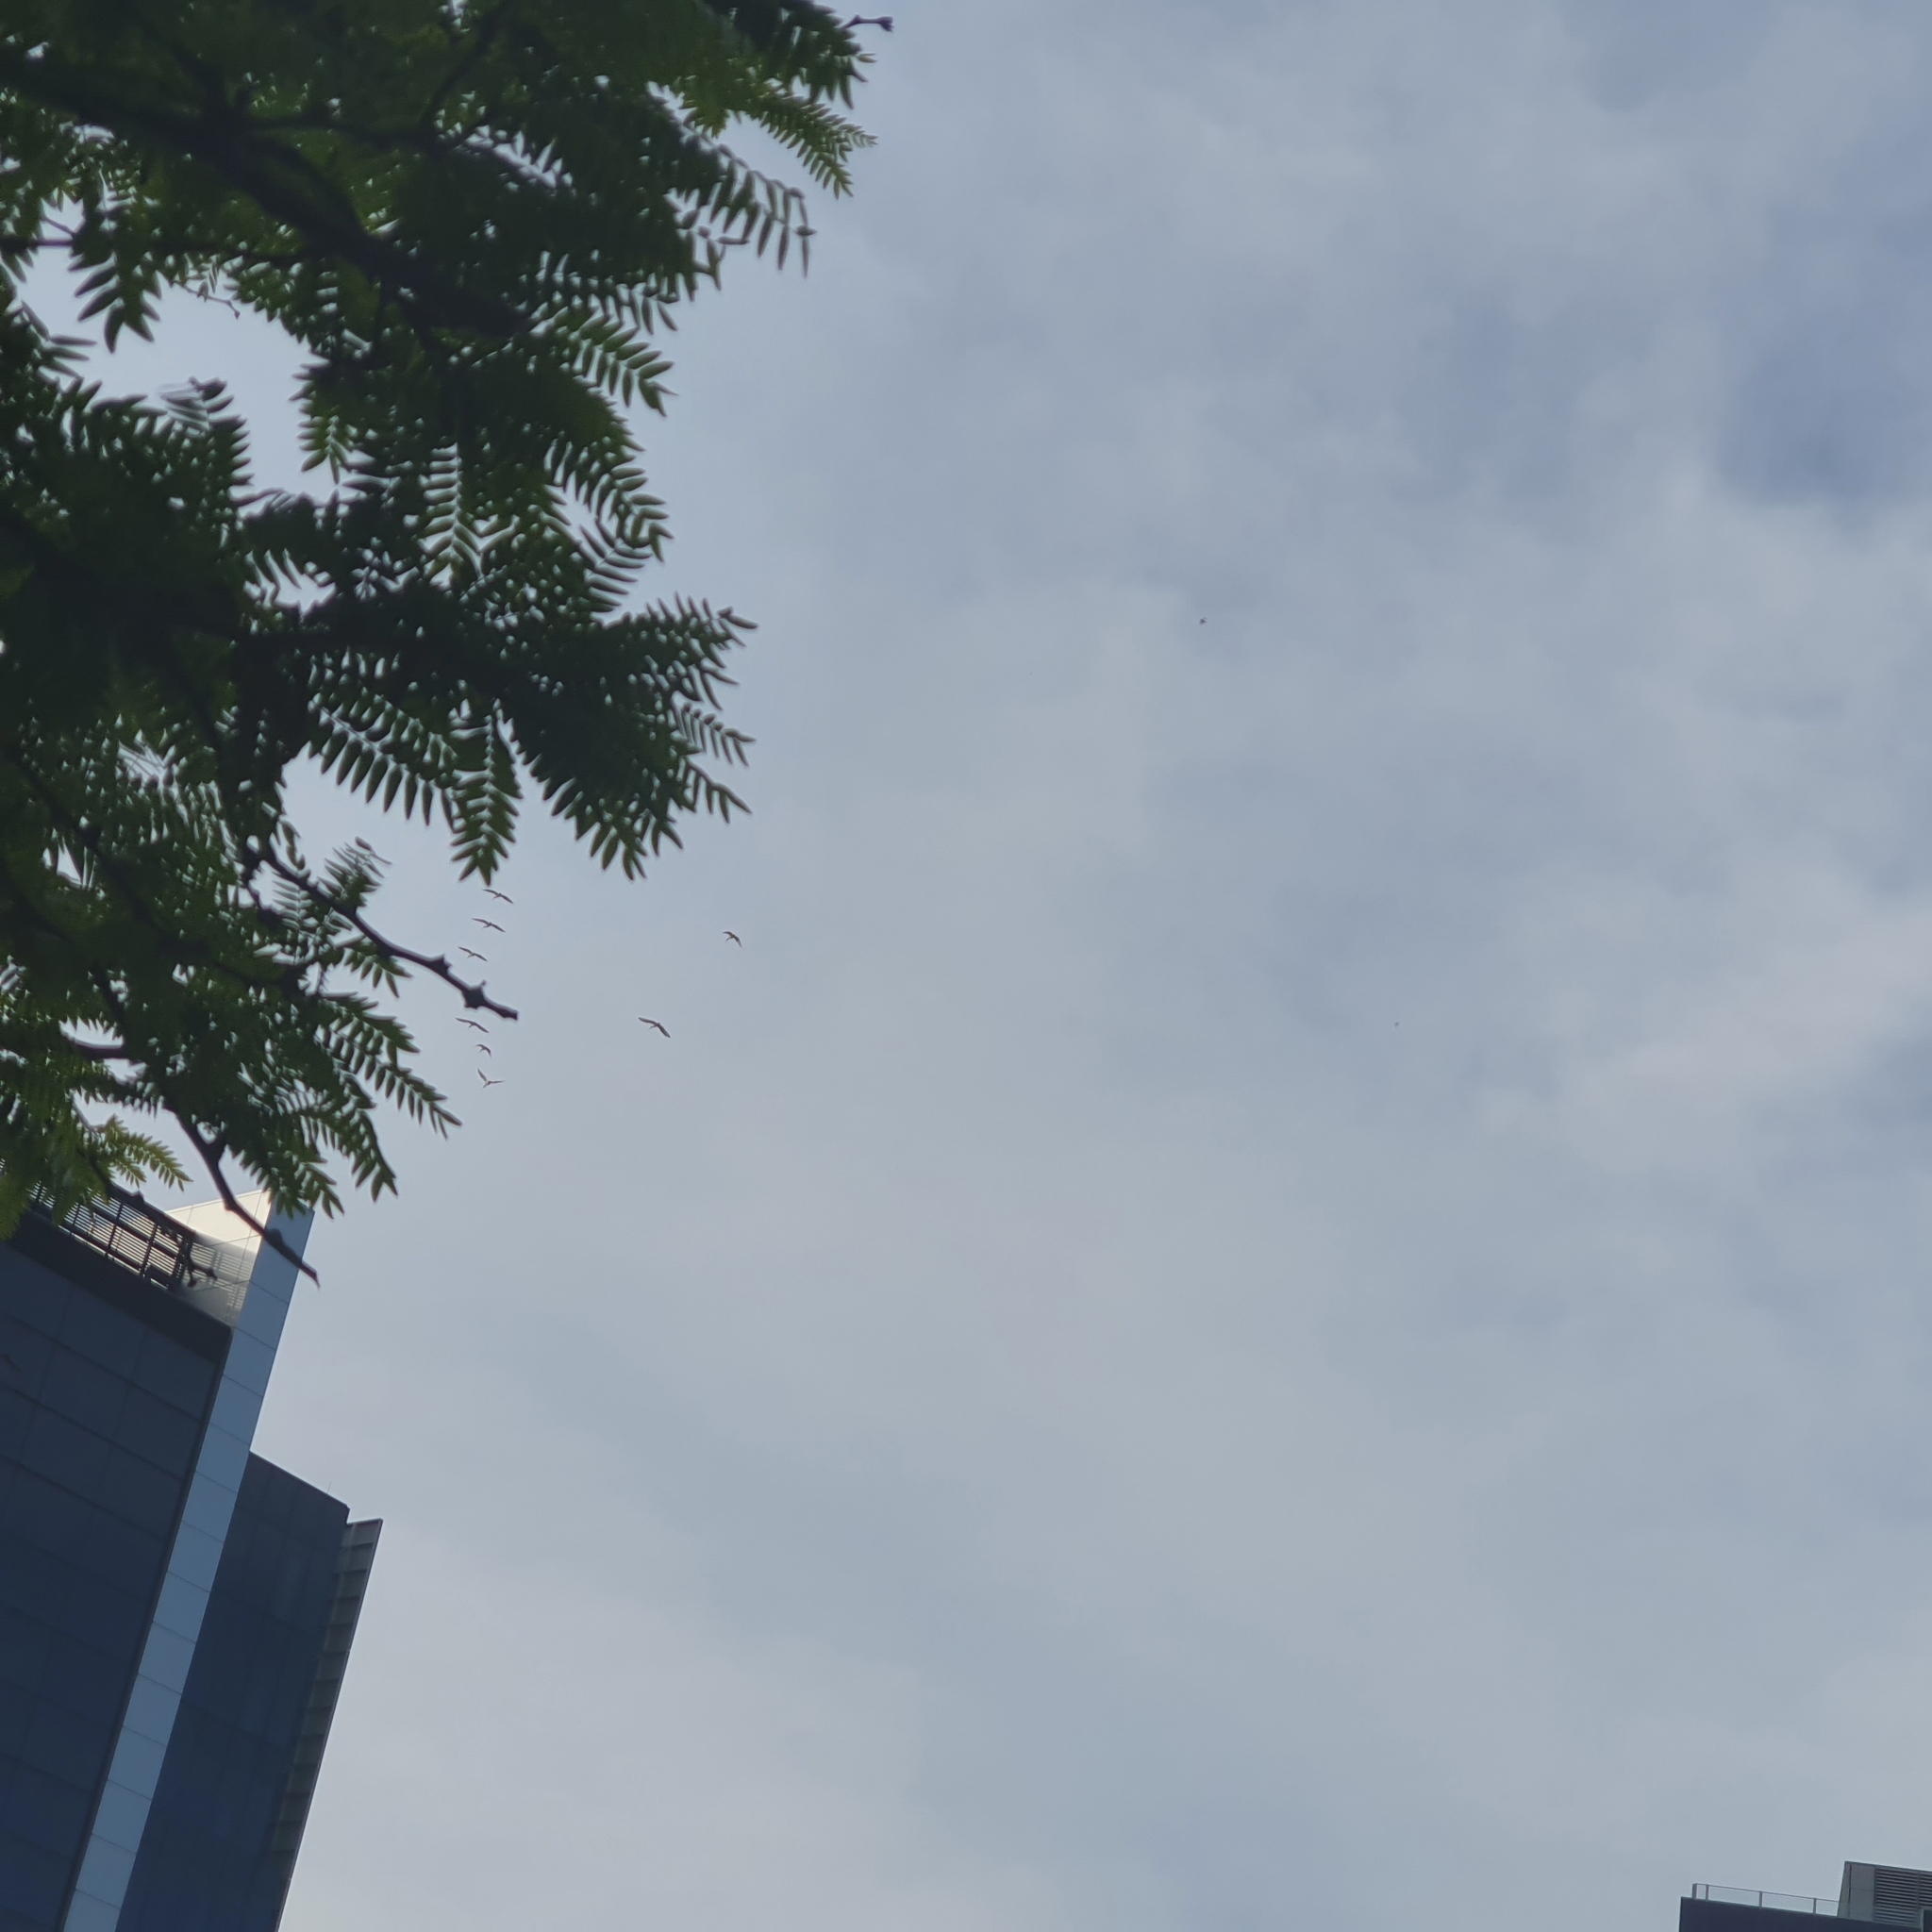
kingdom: Animalia
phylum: Chordata
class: Aves
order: Pelecaniformes
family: Threskiornithidae
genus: Threskiornis
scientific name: Threskiornis molucca
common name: Australian white ibis
